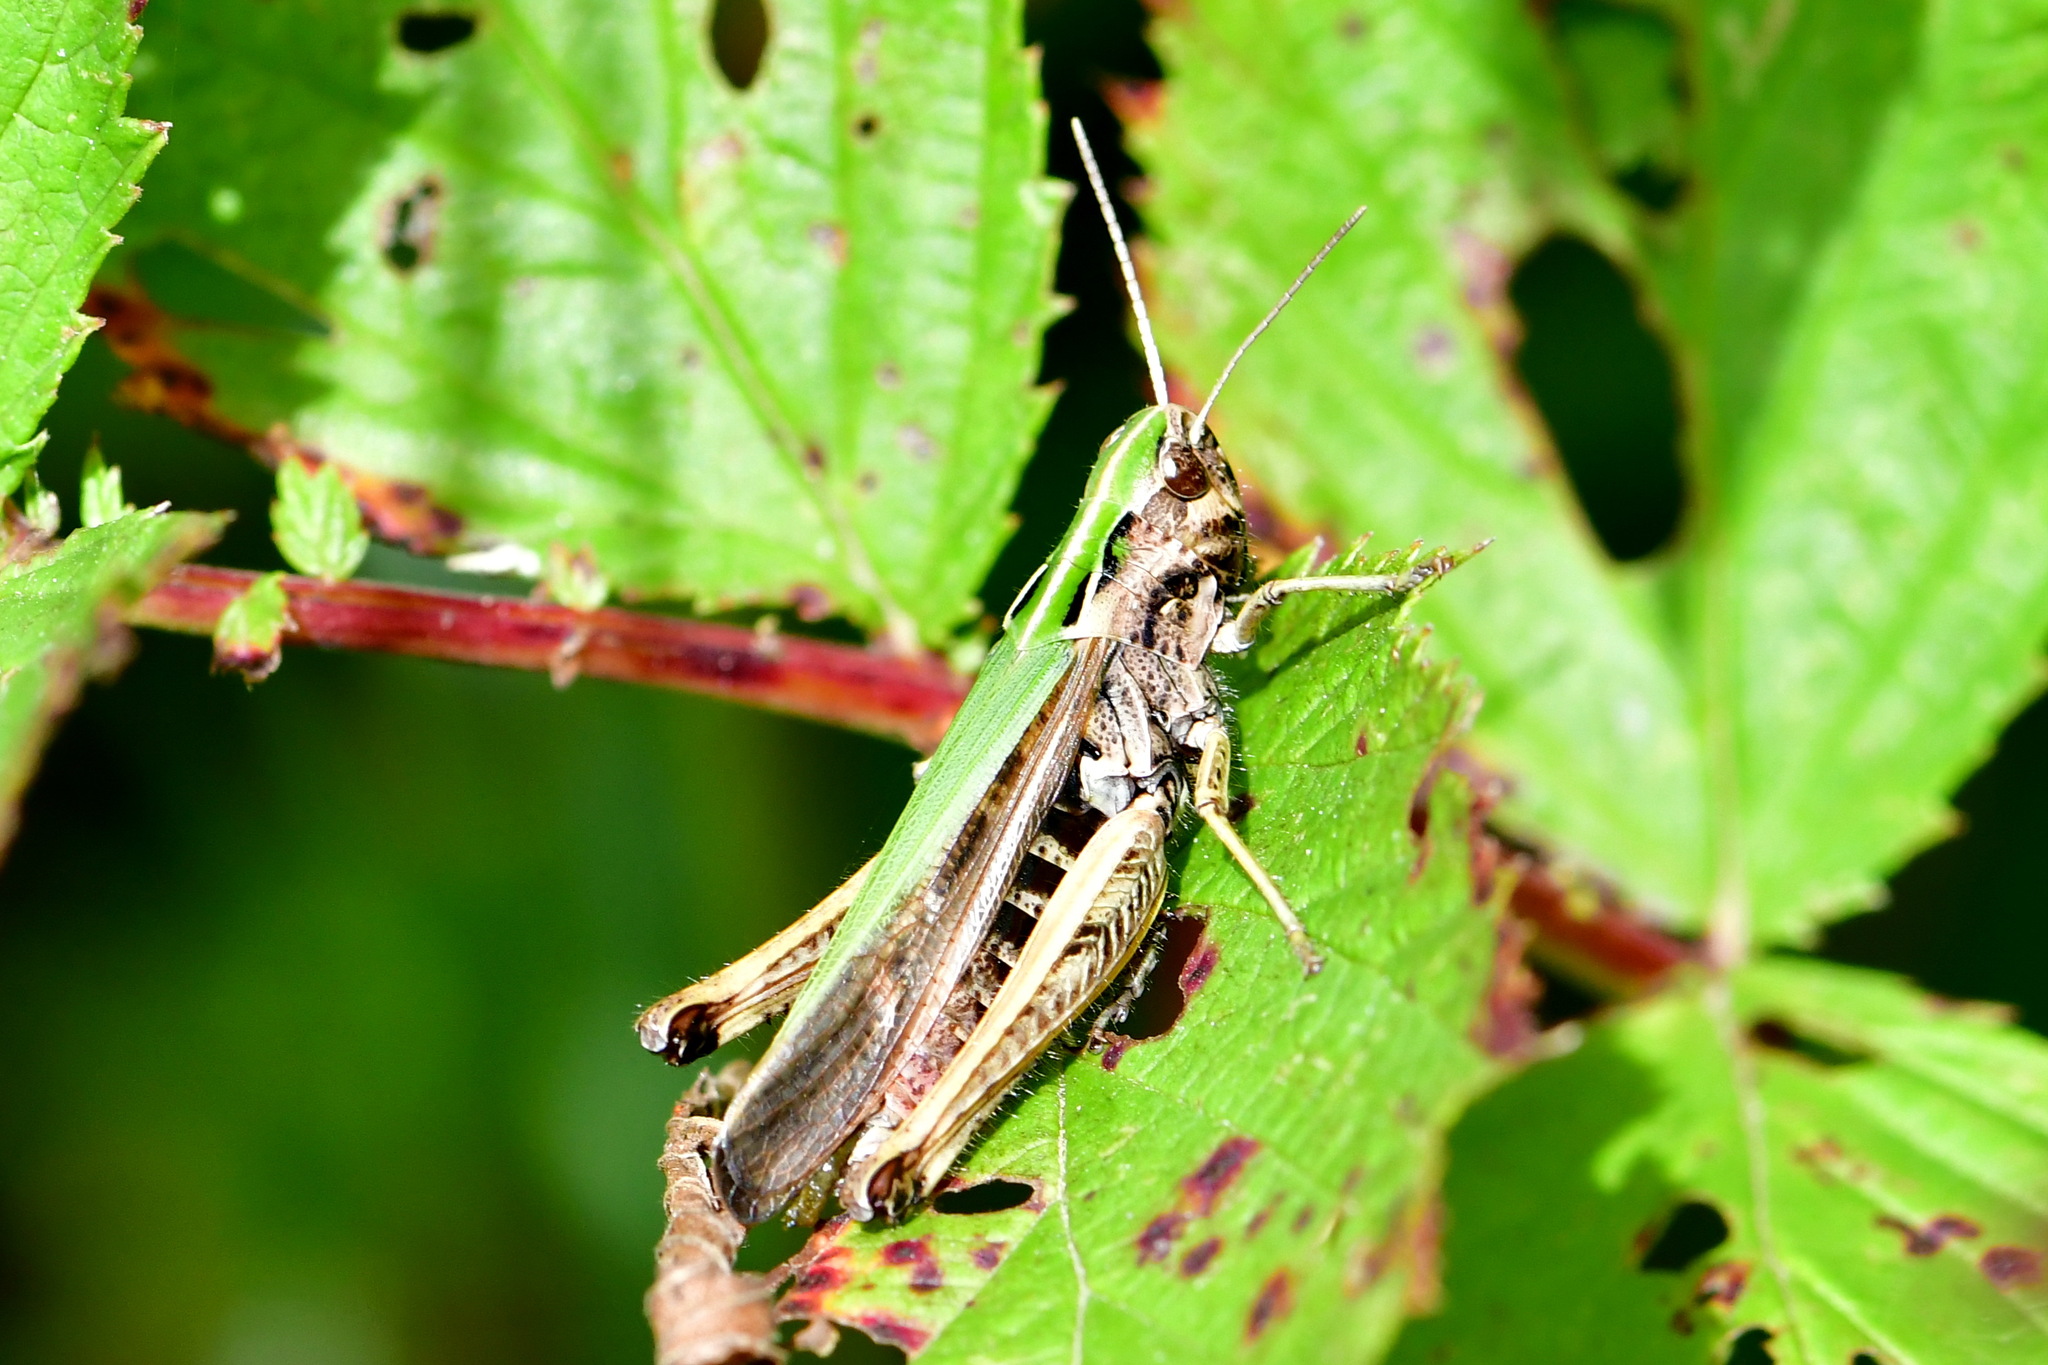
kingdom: Animalia
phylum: Arthropoda
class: Insecta
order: Orthoptera
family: Acrididae
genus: Omocestus
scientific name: Omocestus viridulus
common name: Common green grasshopper
